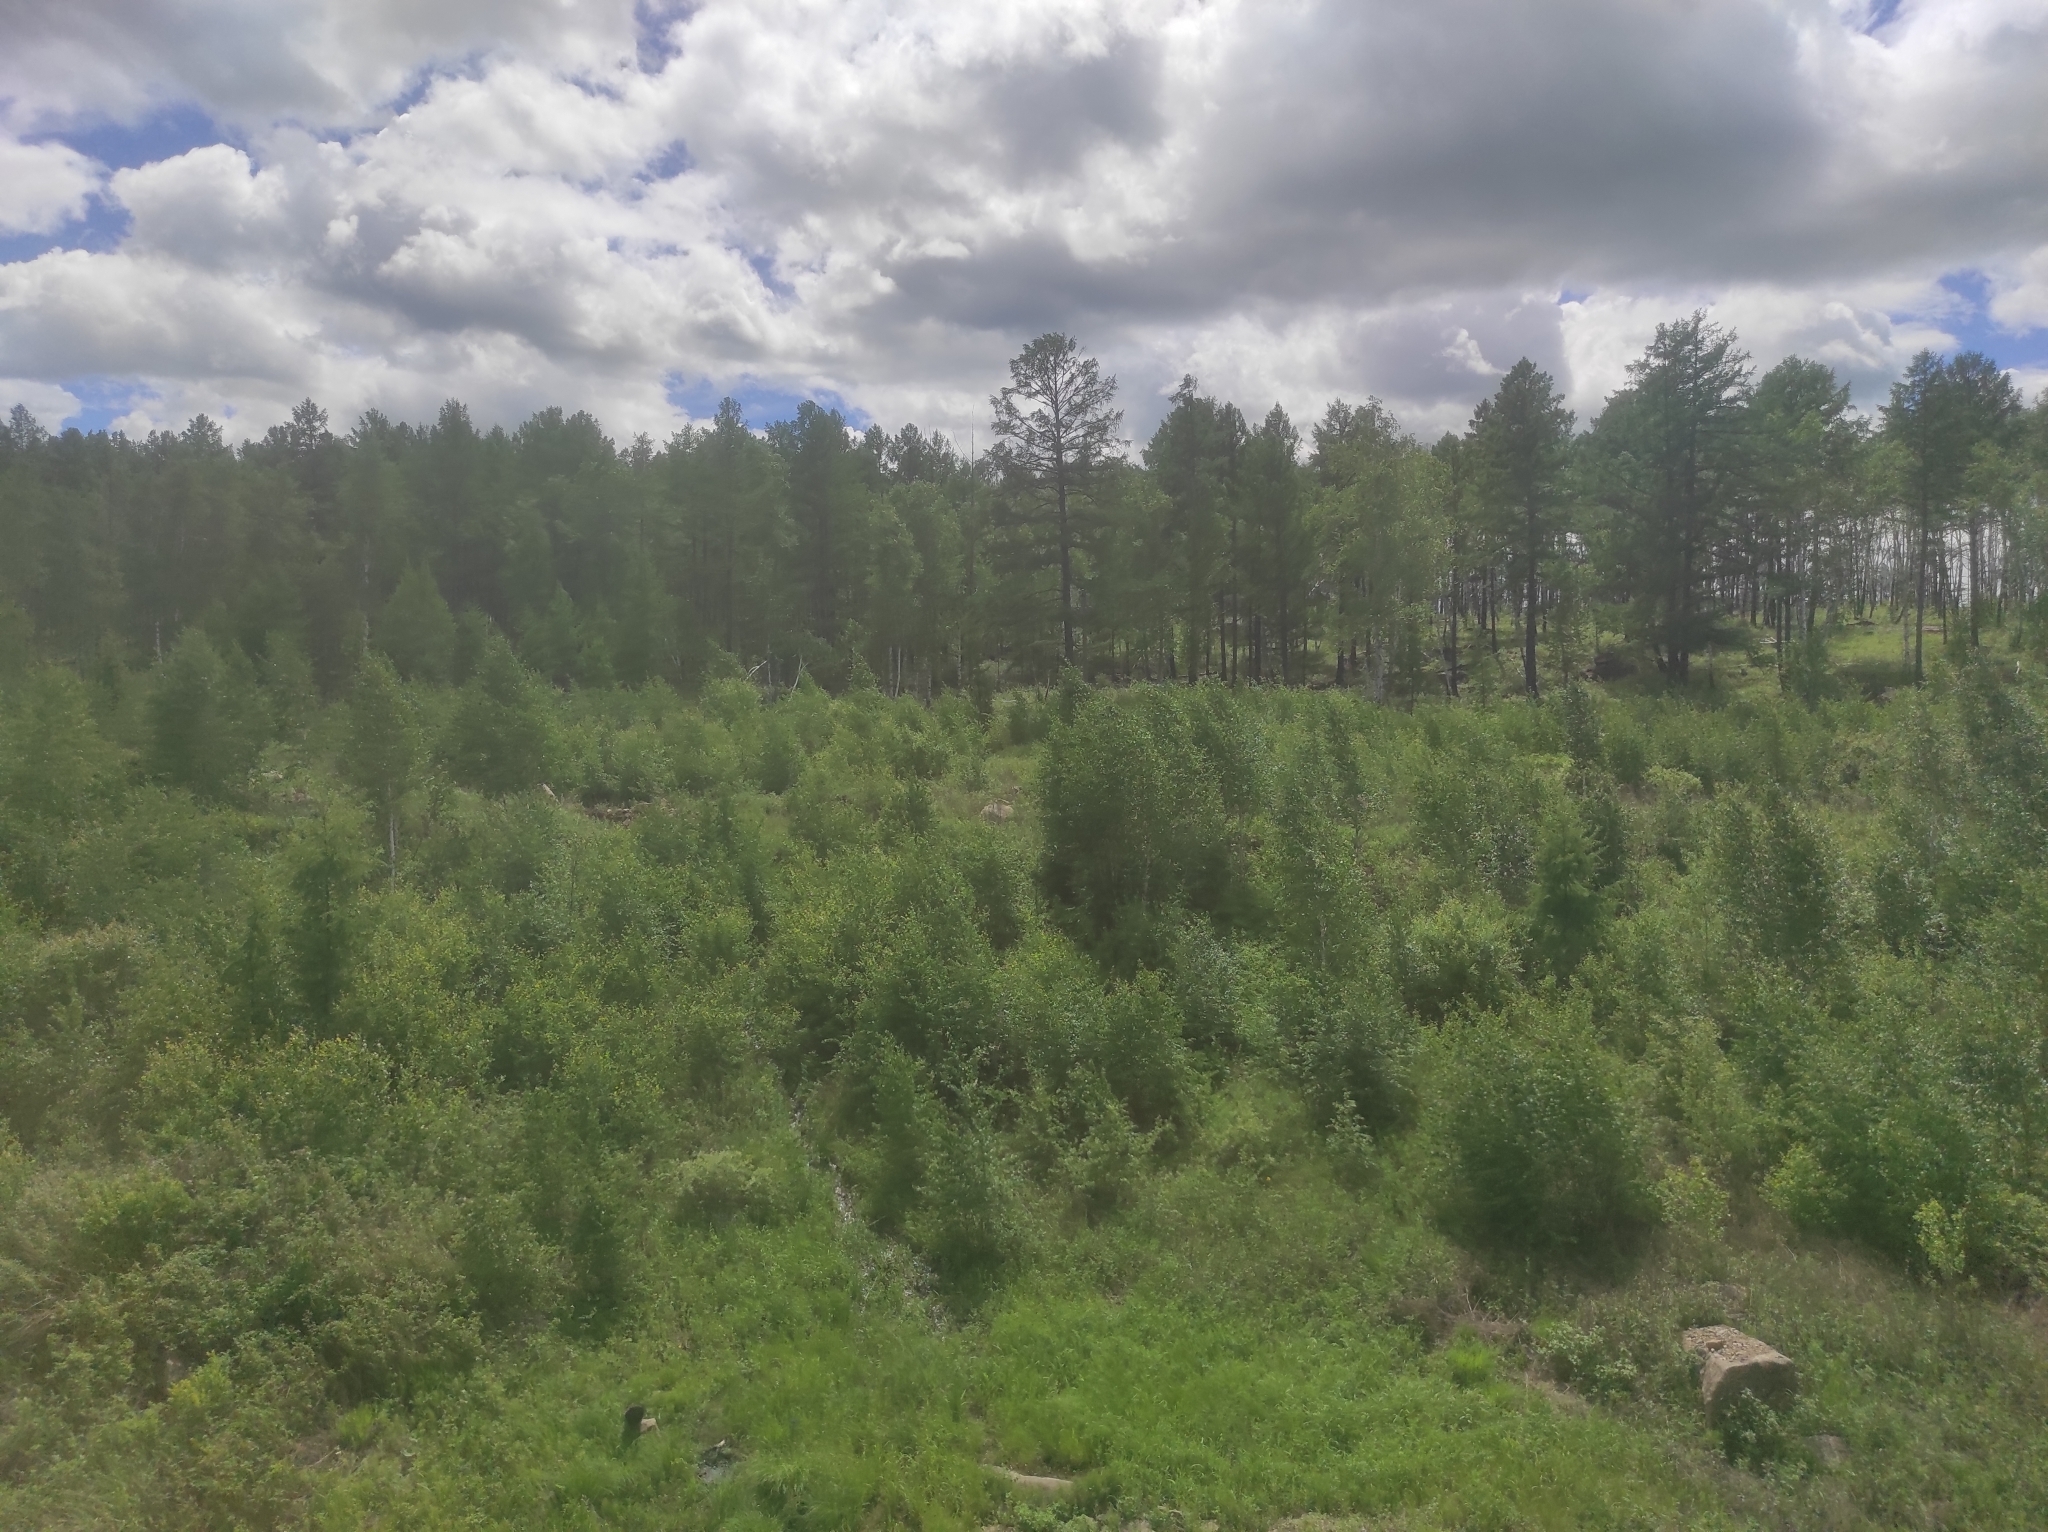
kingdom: Plantae
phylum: Tracheophyta
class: Pinopsida
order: Pinales
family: Pinaceae
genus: Larix
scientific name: Larix gmelinii
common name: Dahurian larch
